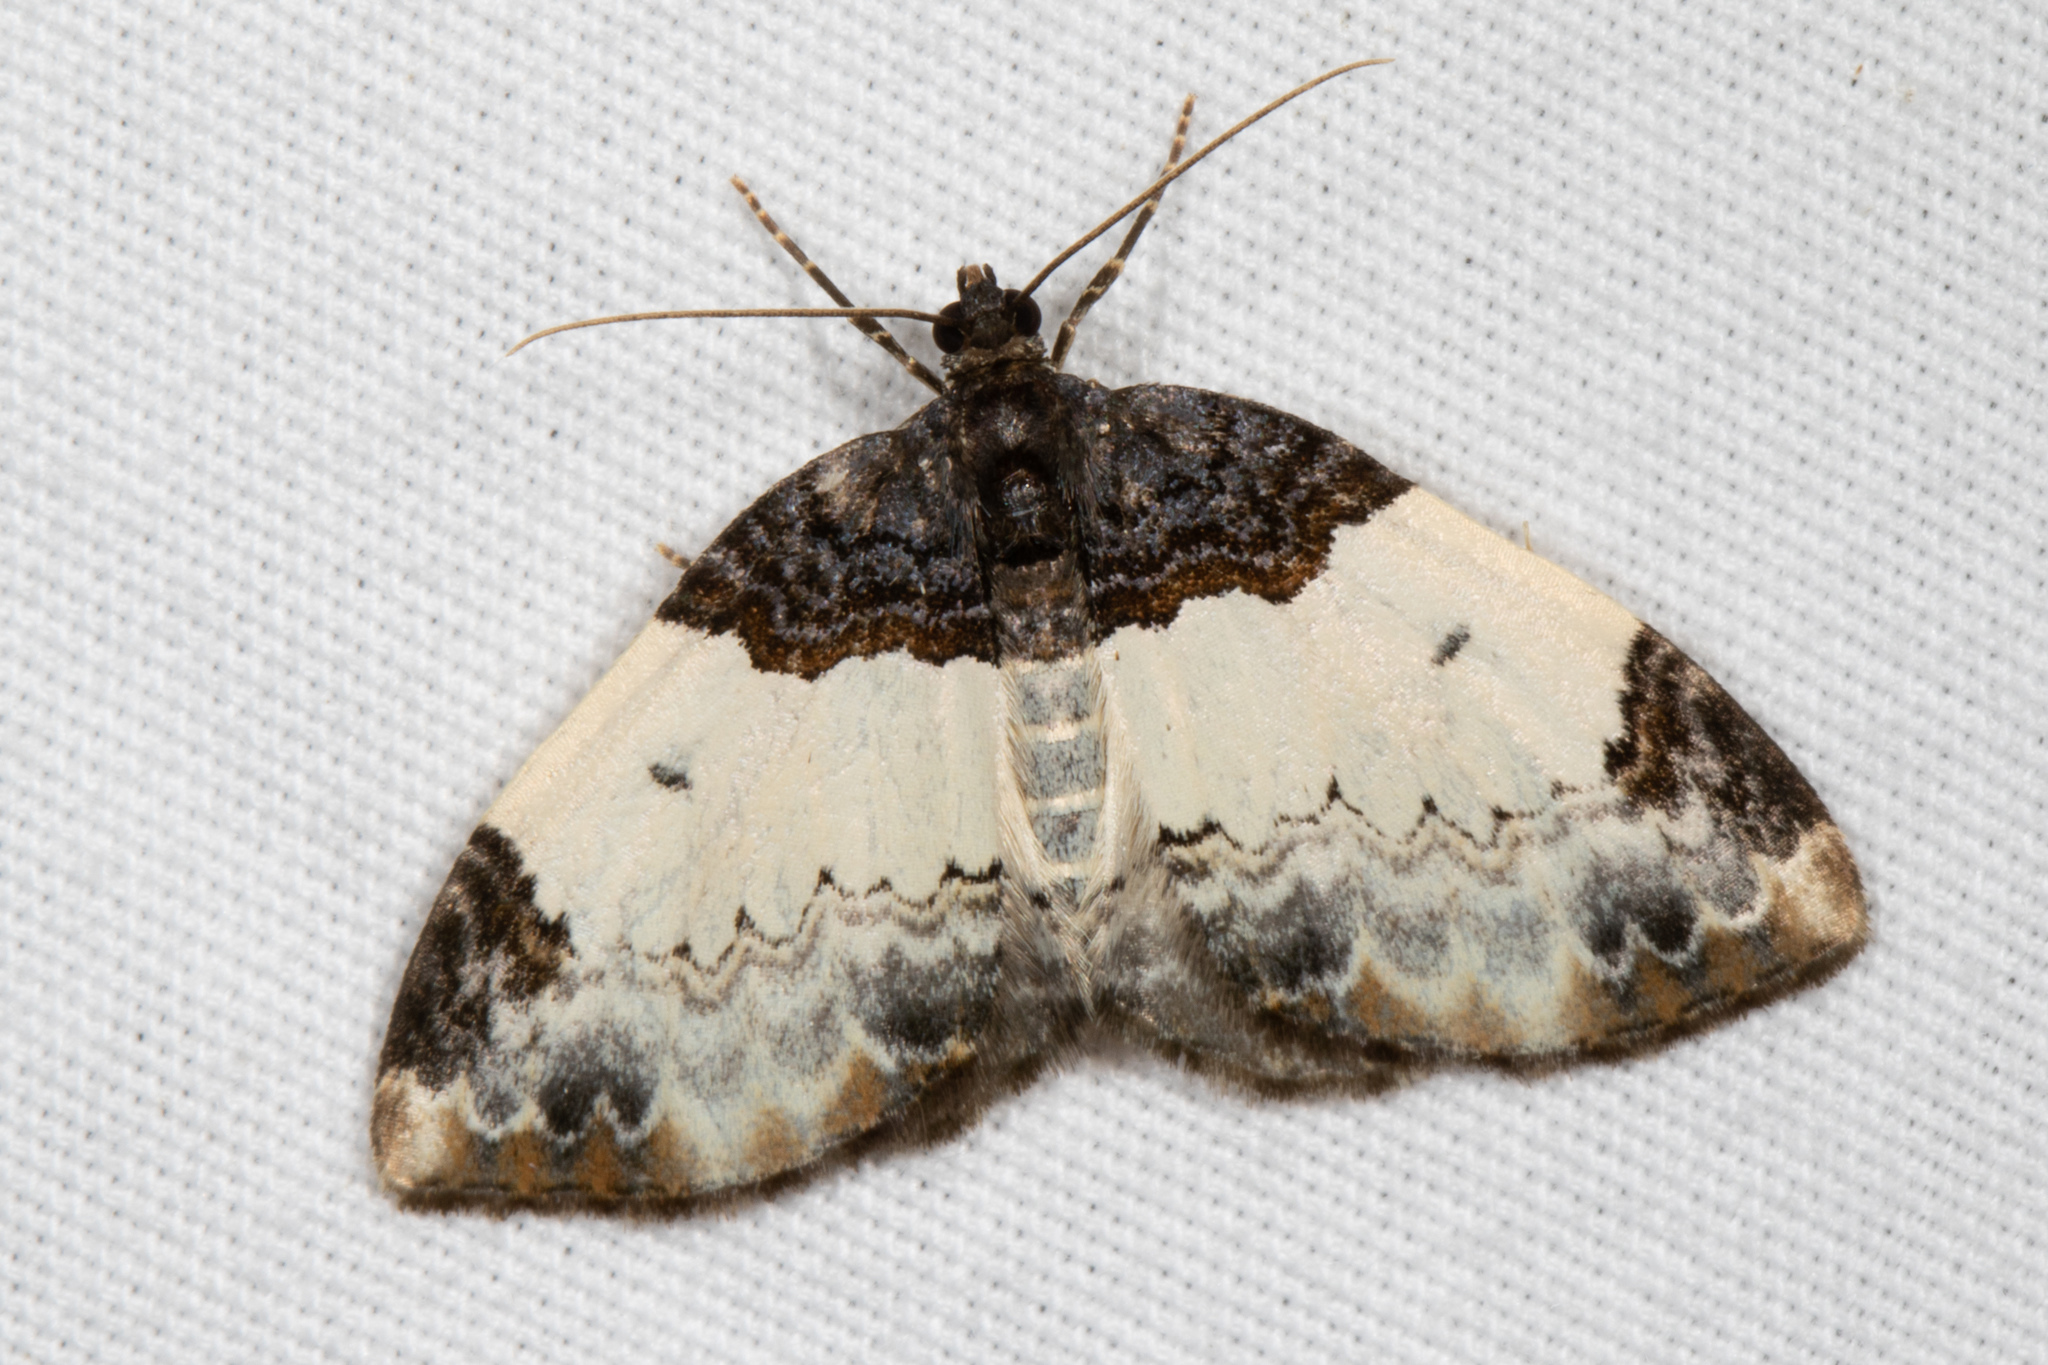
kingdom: Animalia
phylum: Arthropoda
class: Insecta
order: Lepidoptera
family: Geometridae
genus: Mesoleuca
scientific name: Mesoleuca ruficillata
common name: White-ribboned carpet moth
